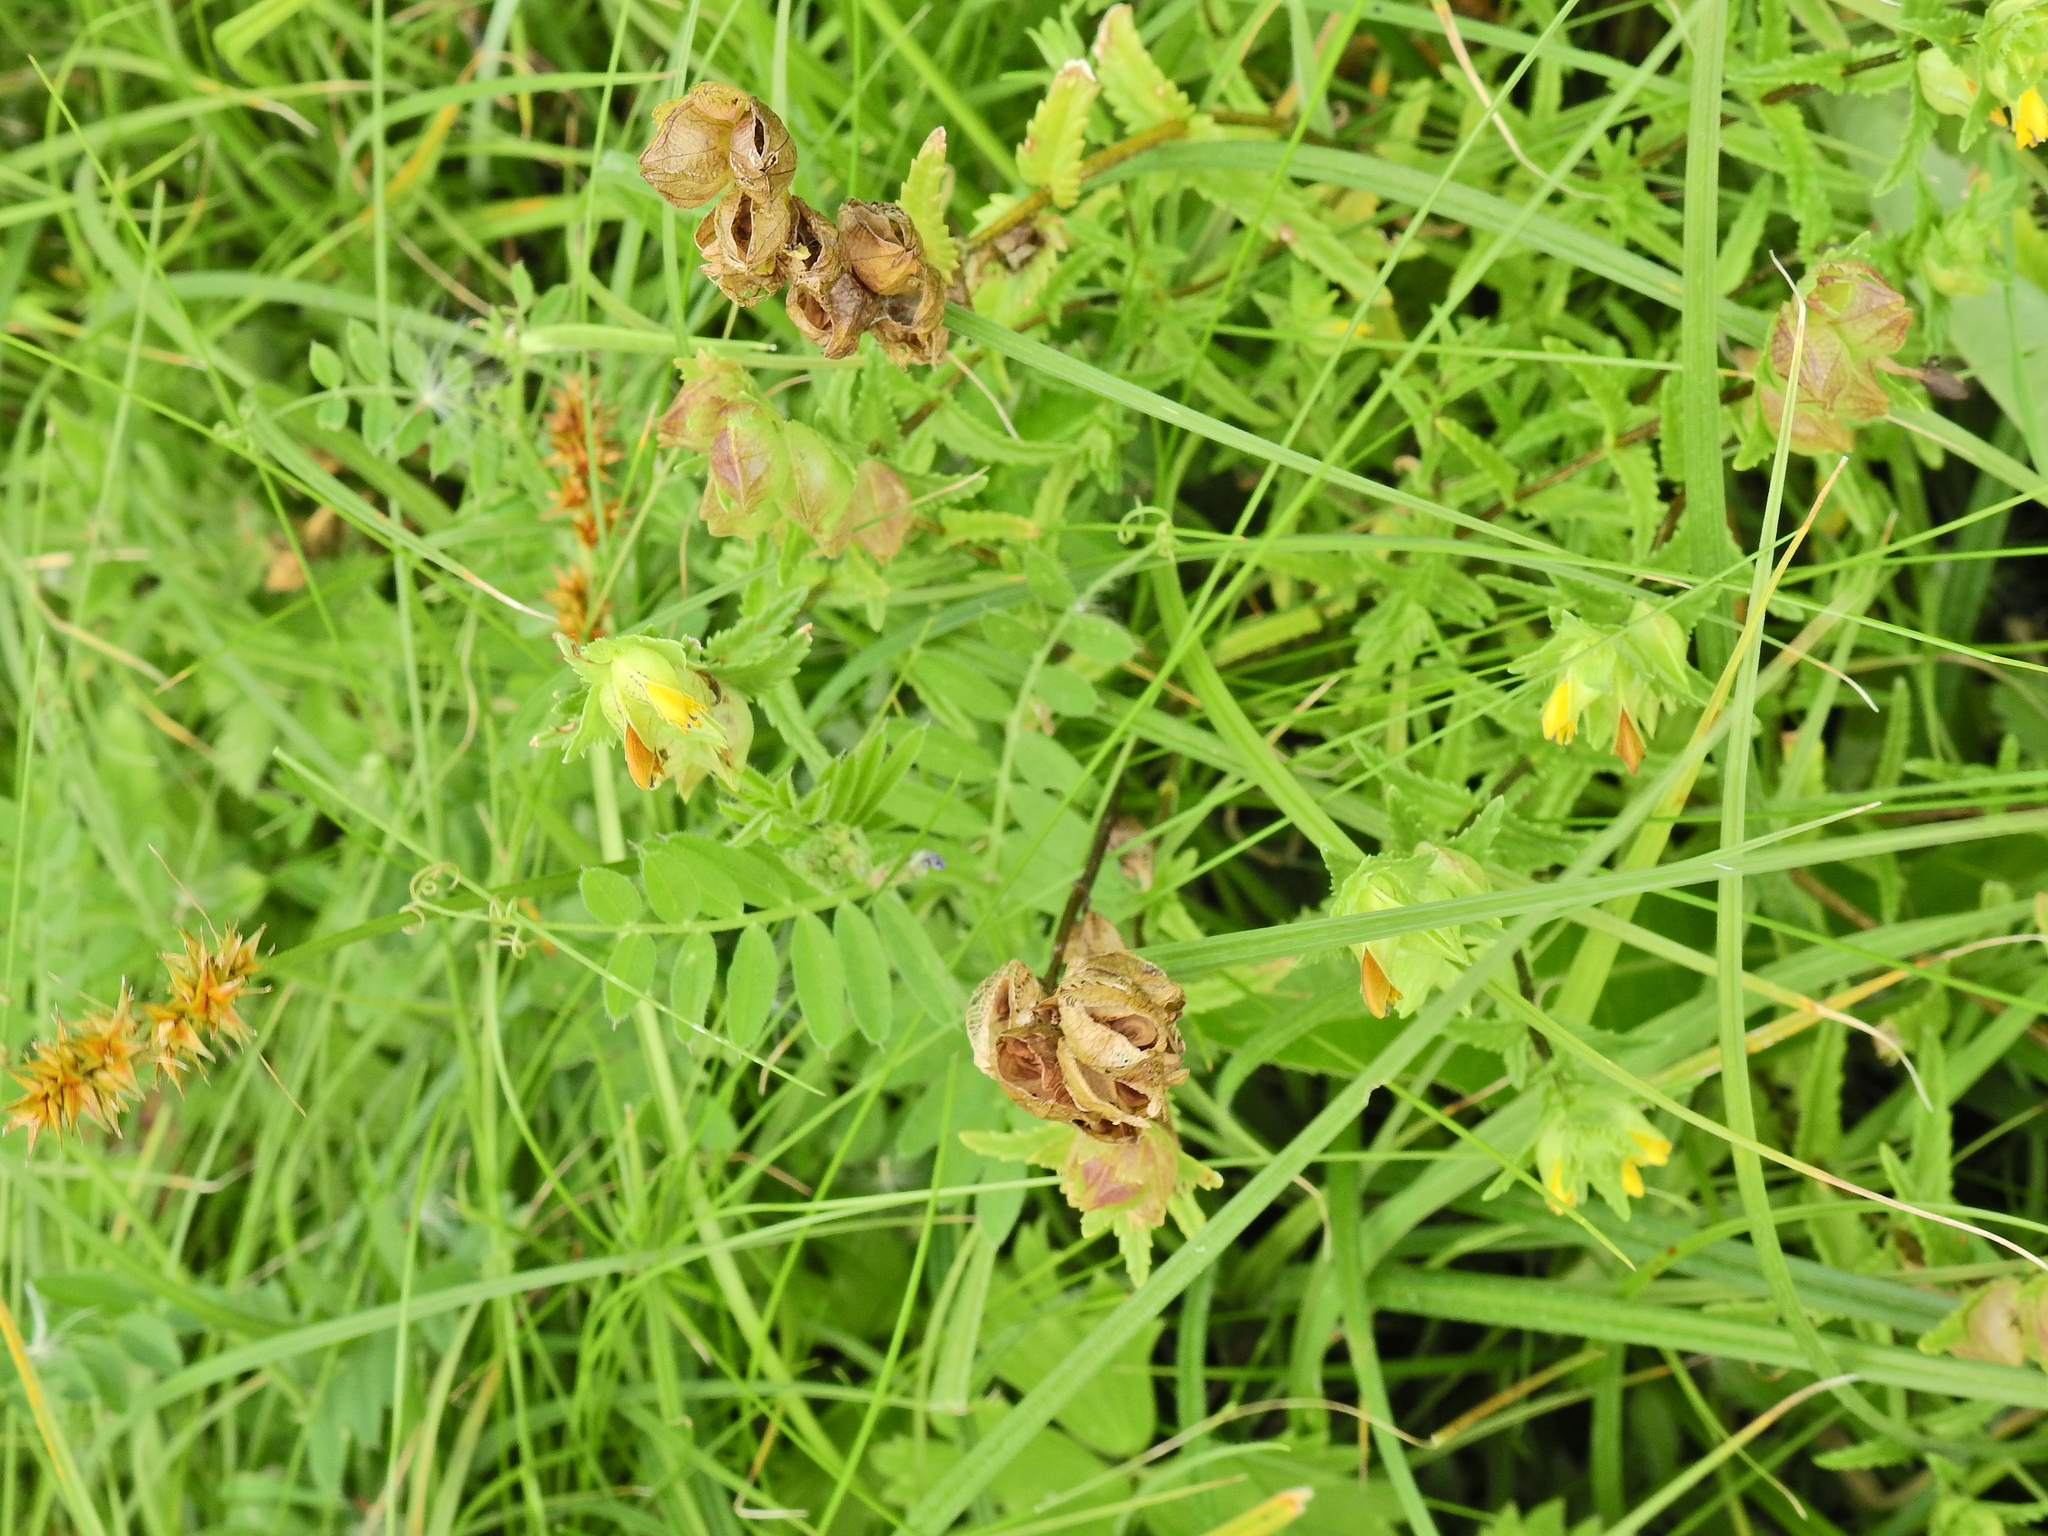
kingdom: Plantae
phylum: Tracheophyta
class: Magnoliopsida
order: Lamiales
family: Orobanchaceae
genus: Rhinanthus
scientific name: Rhinanthus minor
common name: Yellow-rattle
